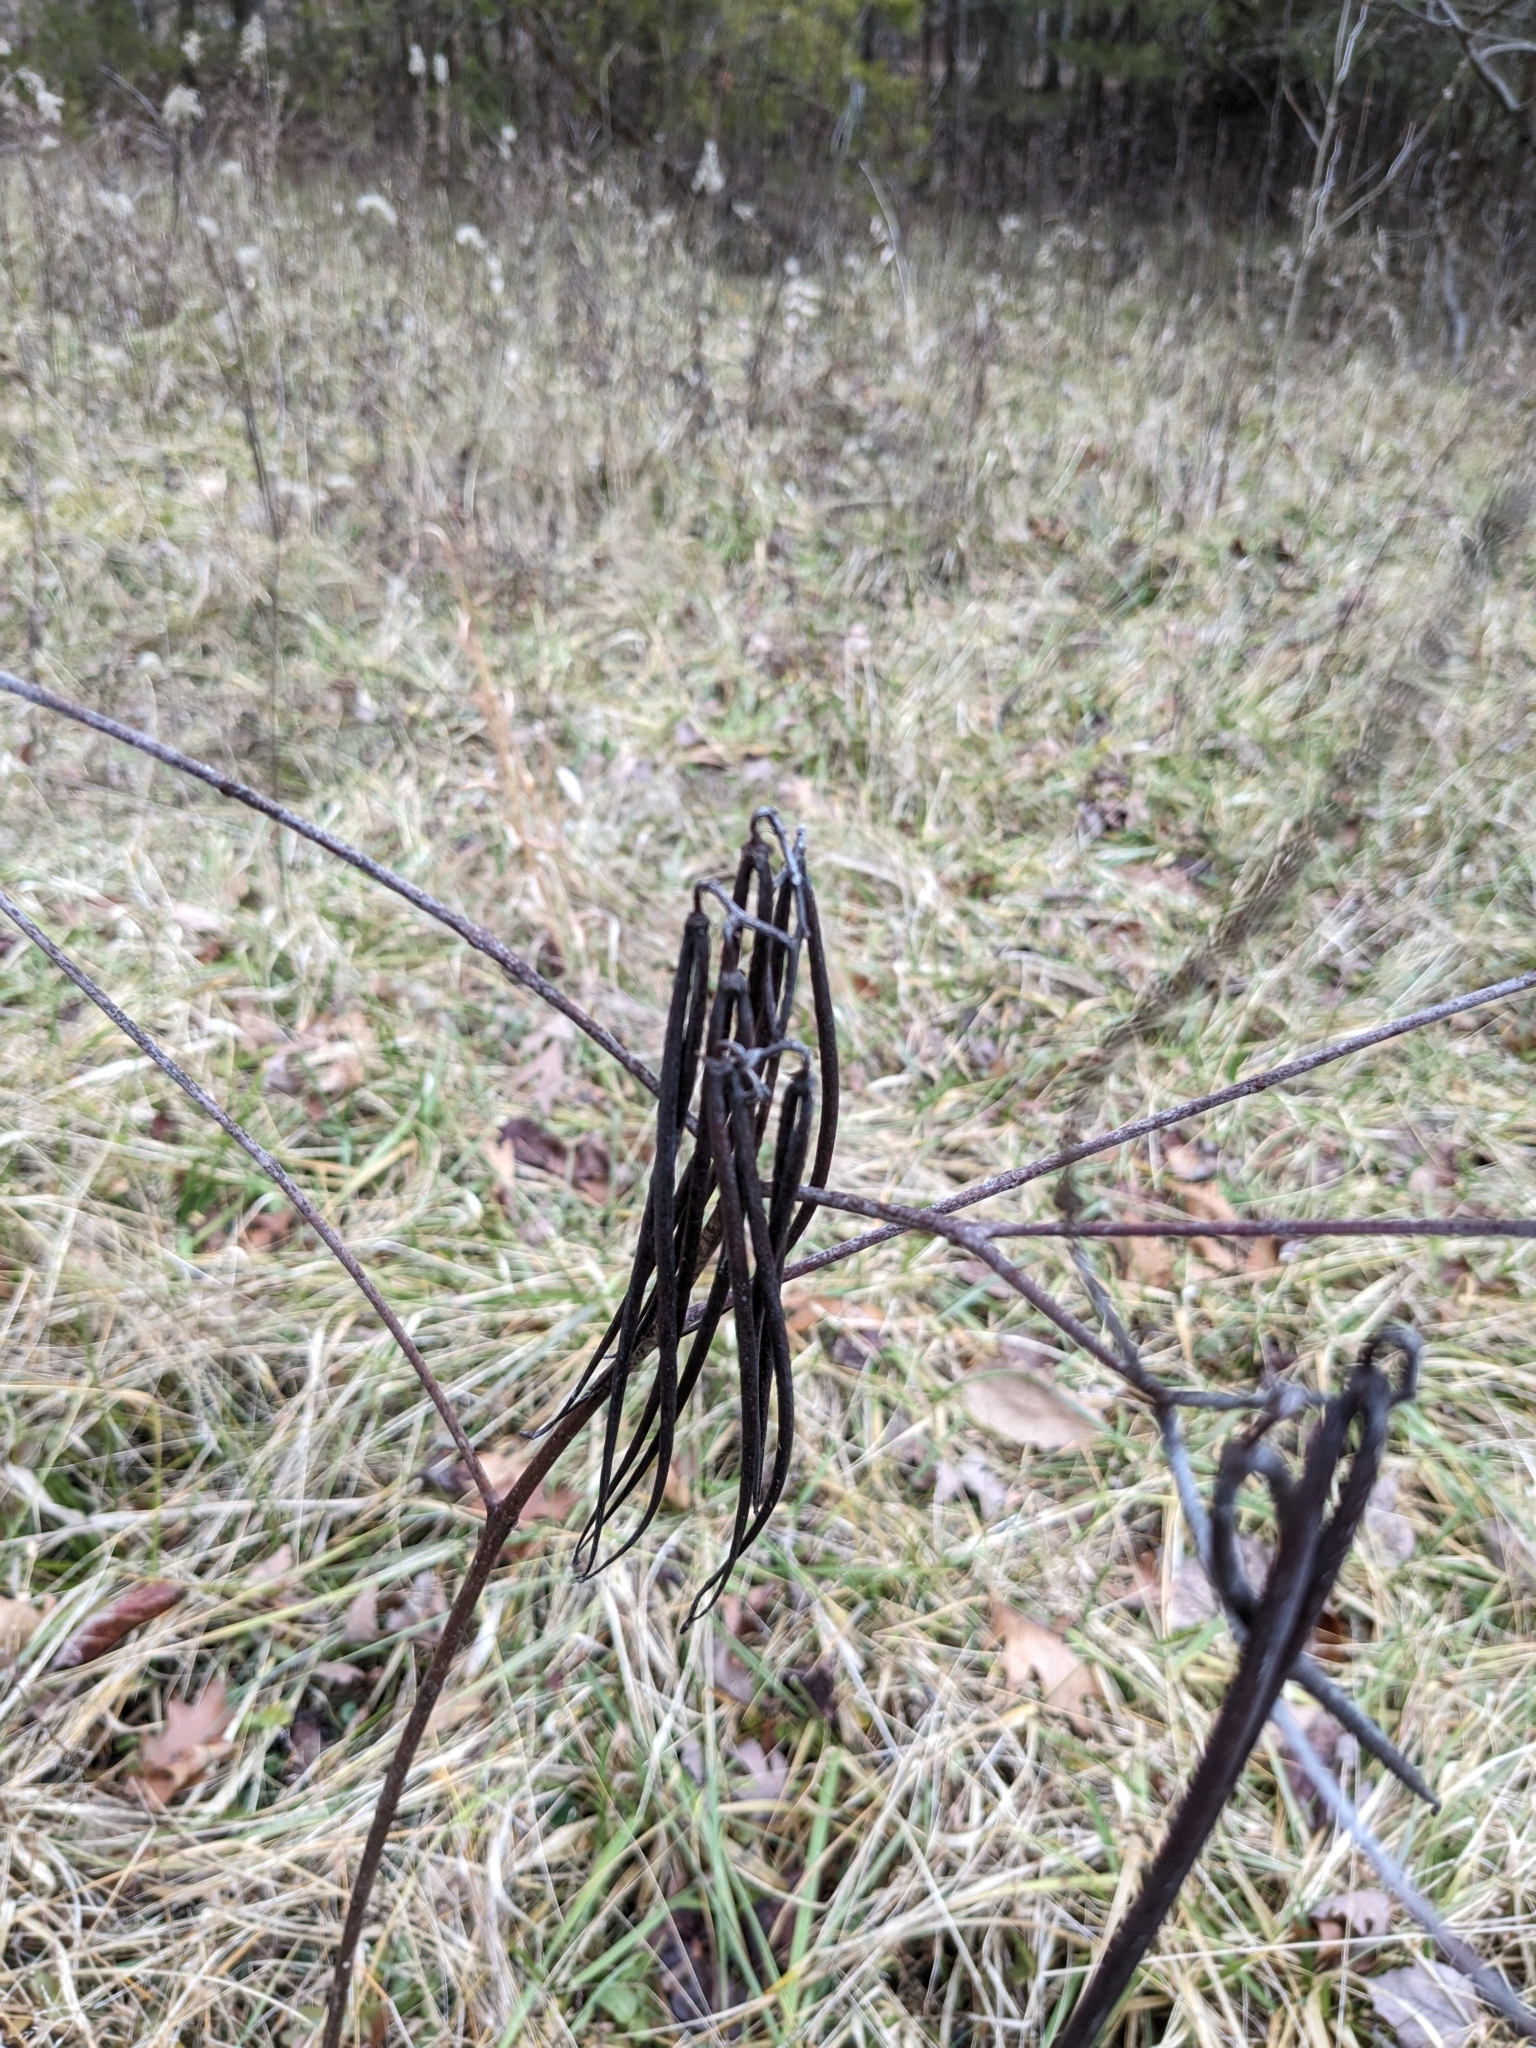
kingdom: Plantae
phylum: Tracheophyta
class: Magnoliopsida
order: Gentianales
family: Apocynaceae
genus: Apocynum
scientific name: Apocynum cannabinum
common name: Hemp dogbane
